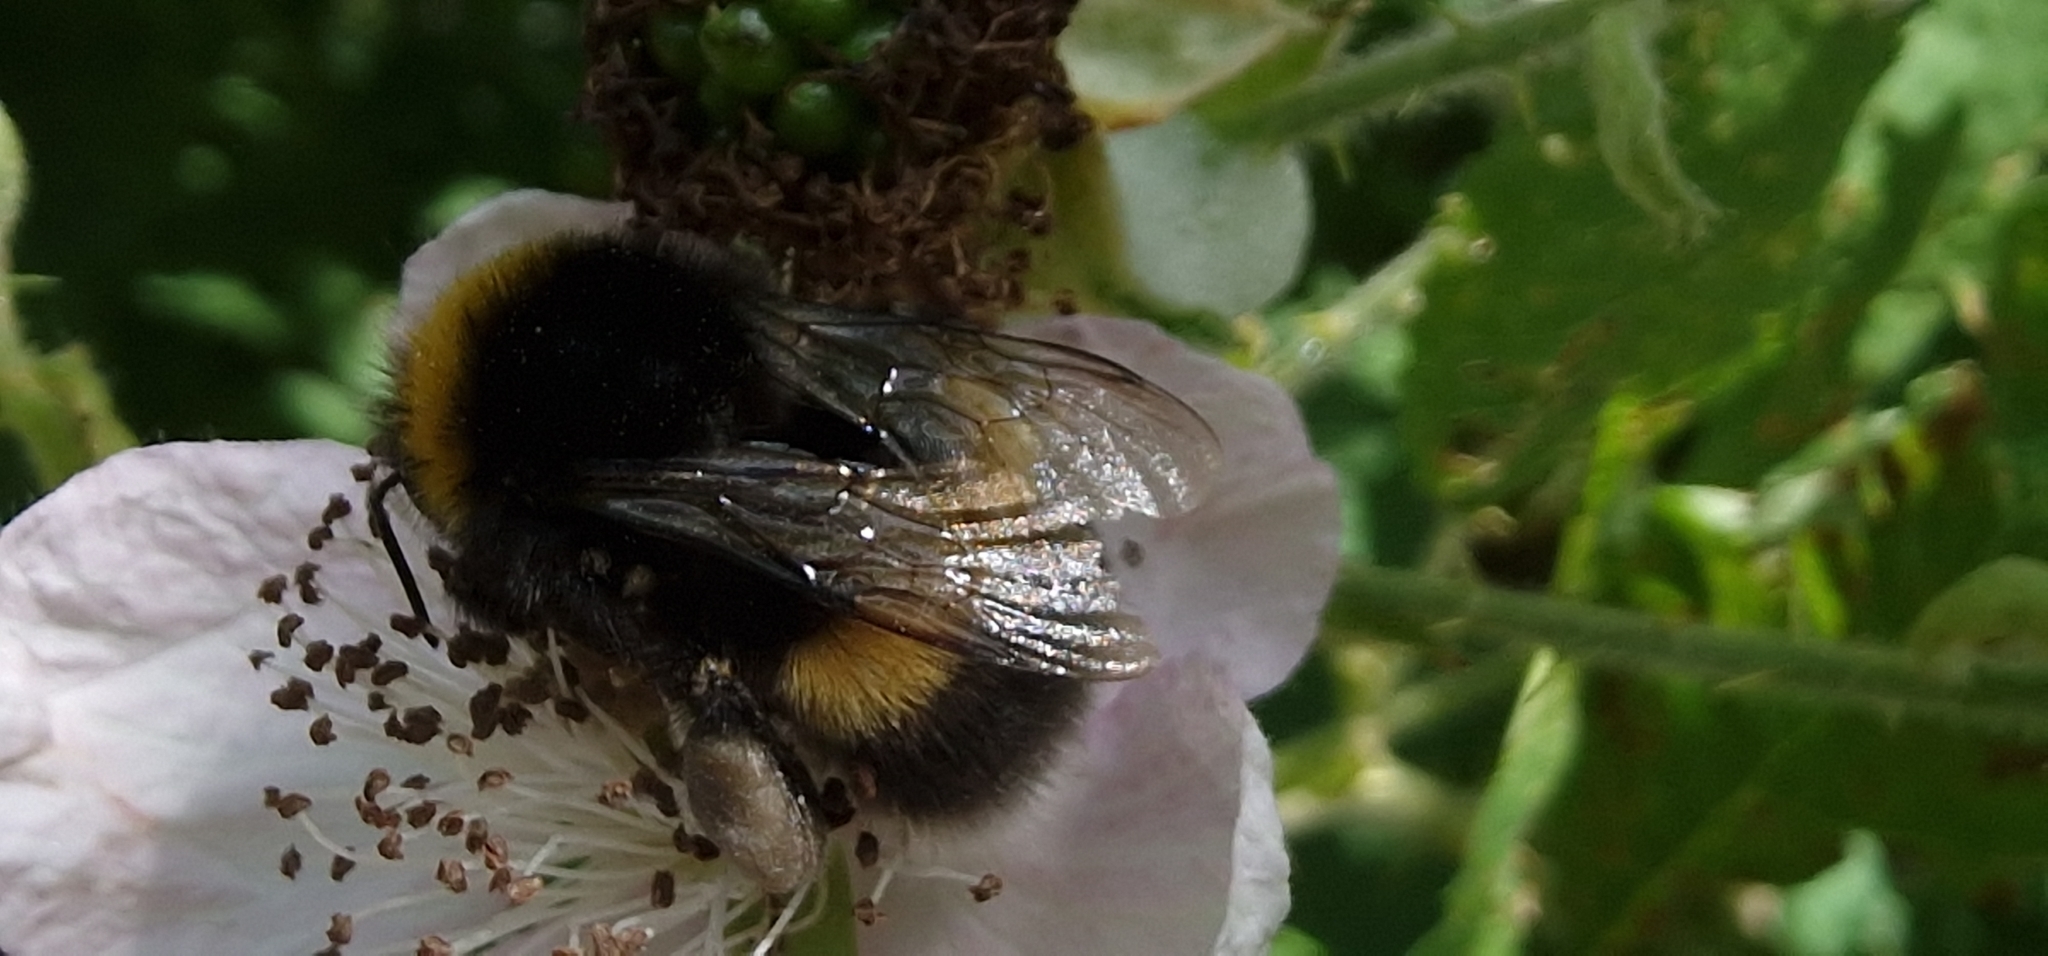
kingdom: Animalia
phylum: Arthropoda
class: Insecta
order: Hymenoptera
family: Apidae
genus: Bombus
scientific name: Bombus terrestris
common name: Buff-tailed bumblebee
